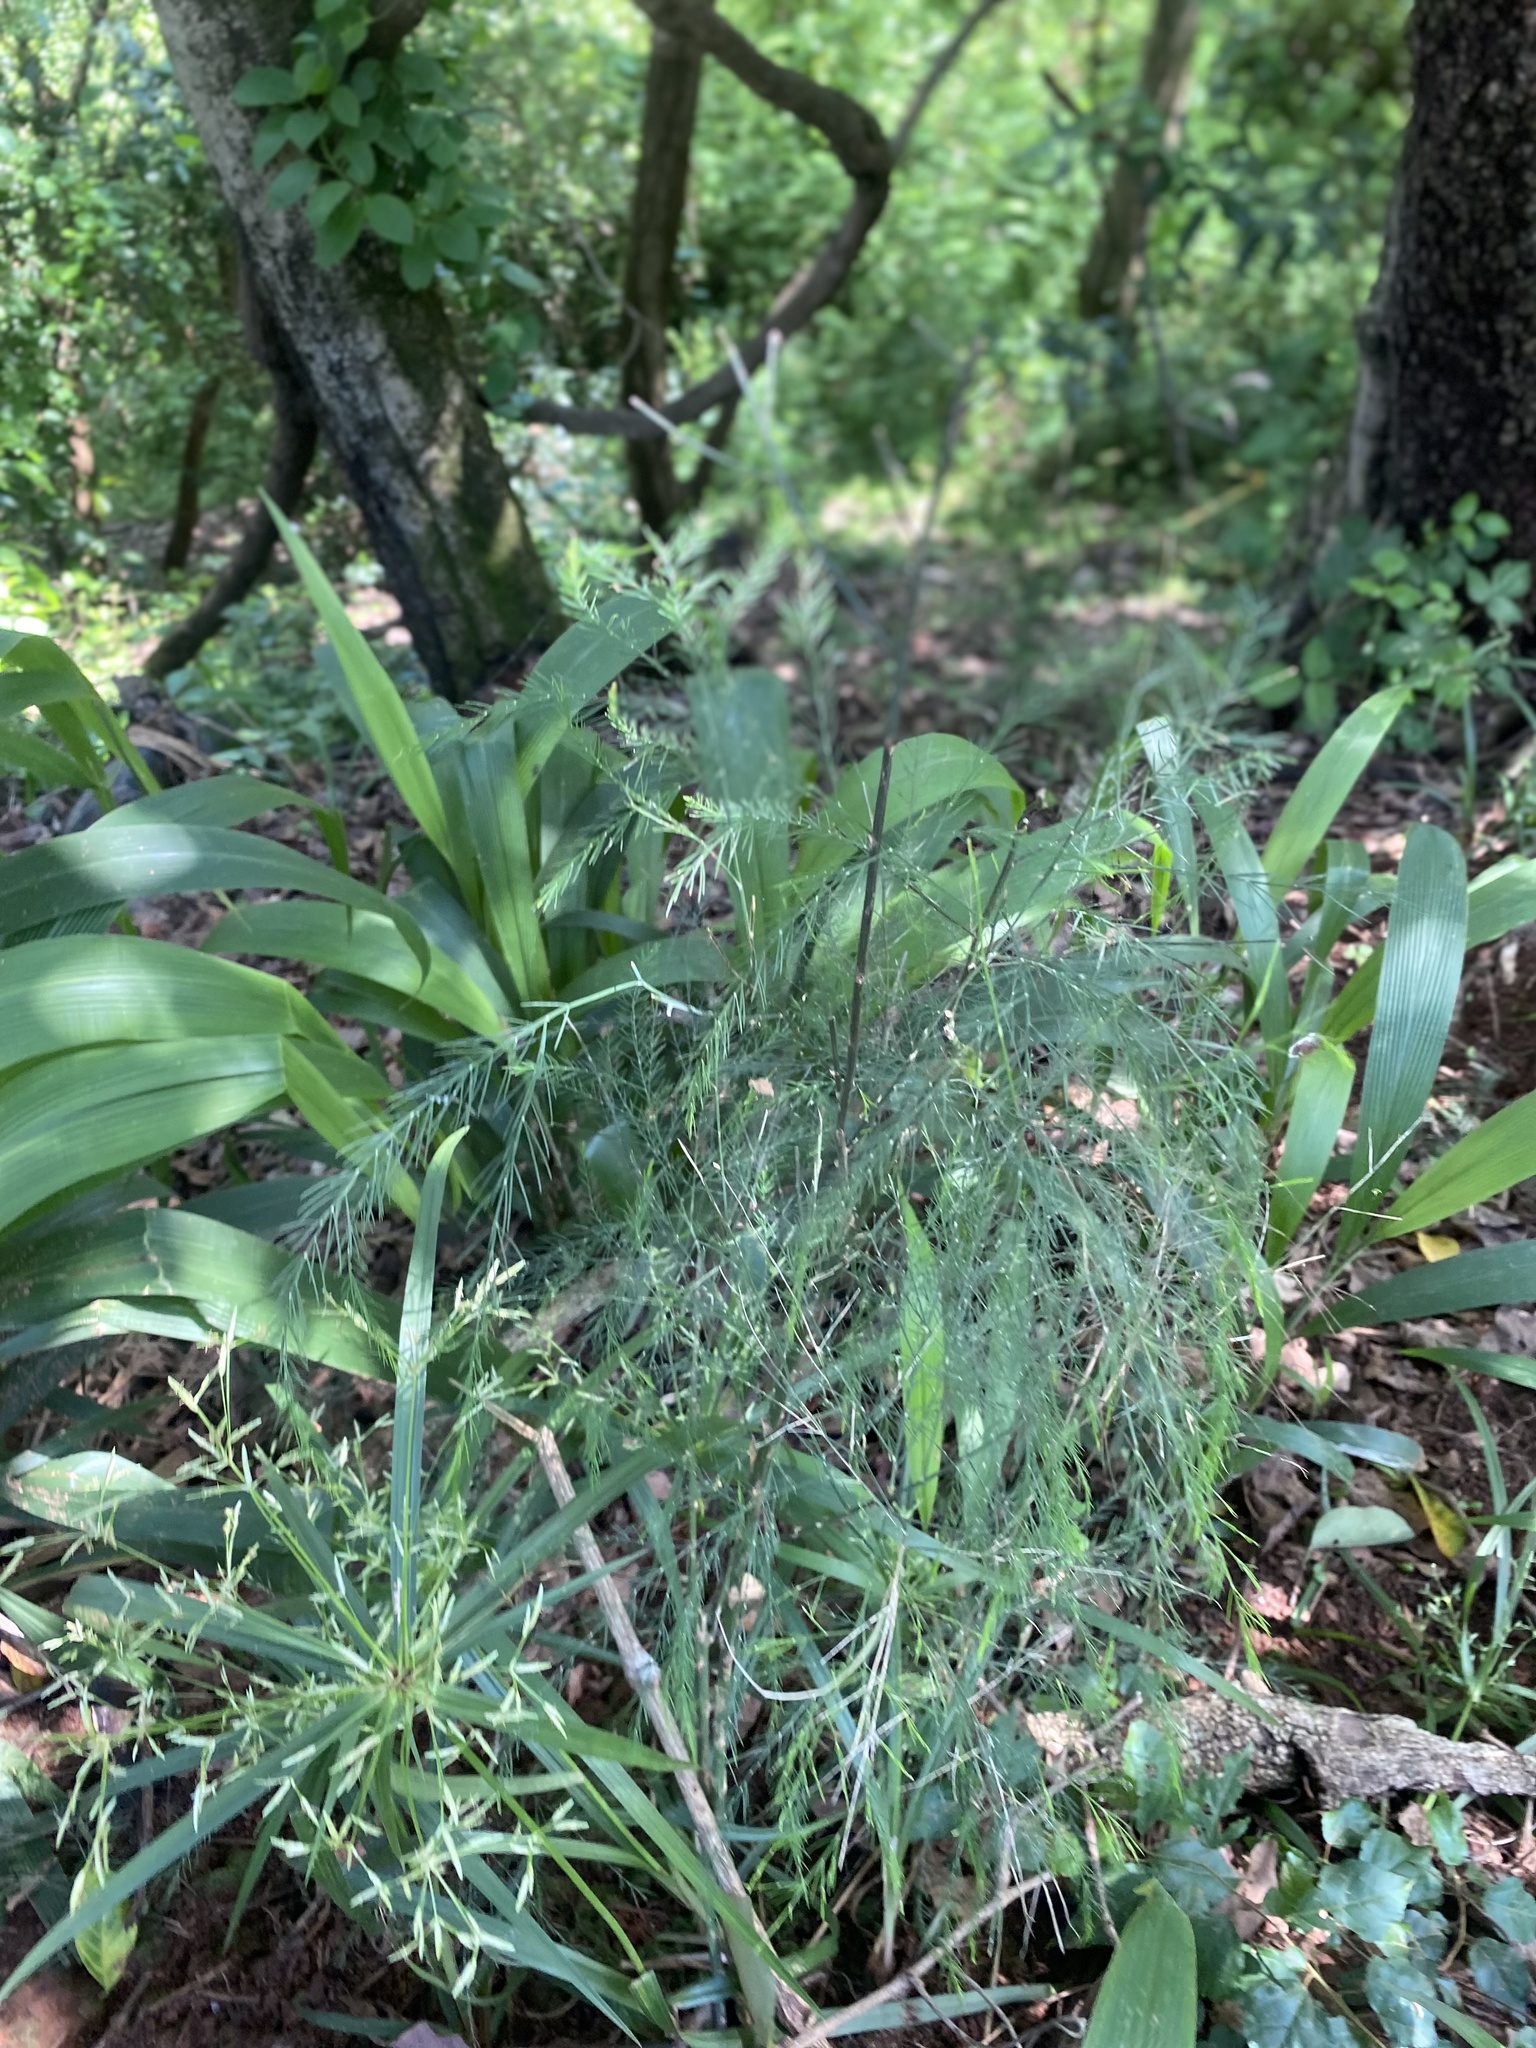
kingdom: Plantae
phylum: Tracheophyta
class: Liliopsida
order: Asparagales
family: Asparagaceae
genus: Asparagus
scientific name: Asparagus virgatus
